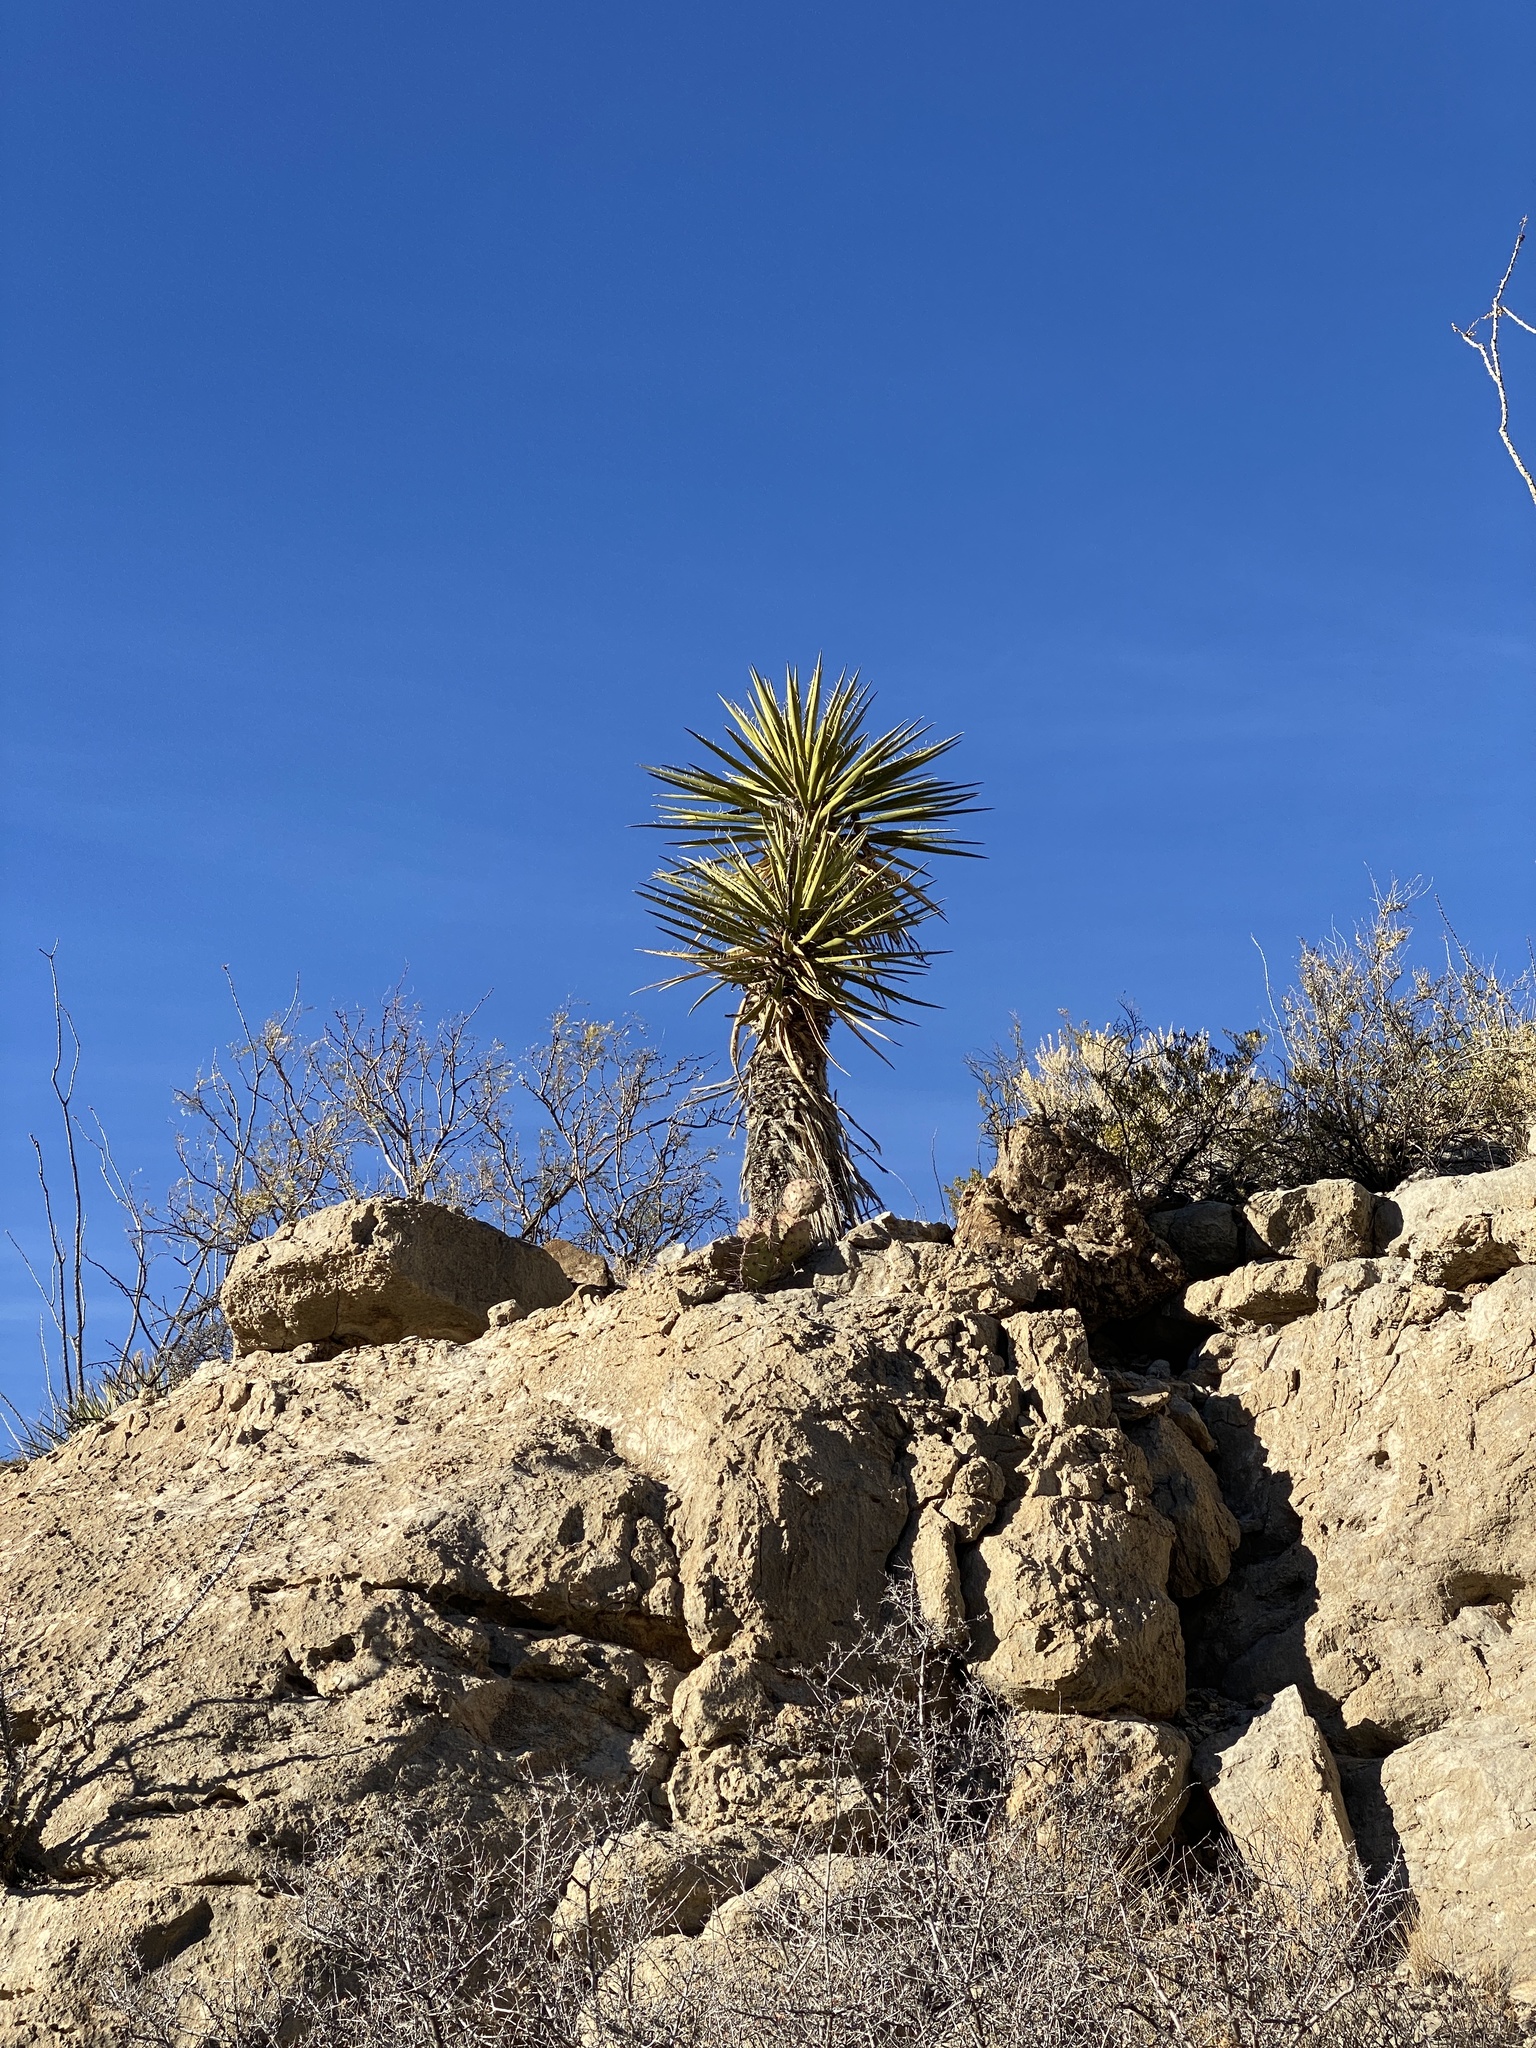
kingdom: Plantae
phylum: Tracheophyta
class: Liliopsida
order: Asparagales
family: Asparagaceae
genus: Yucca
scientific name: Yucca treculiana
